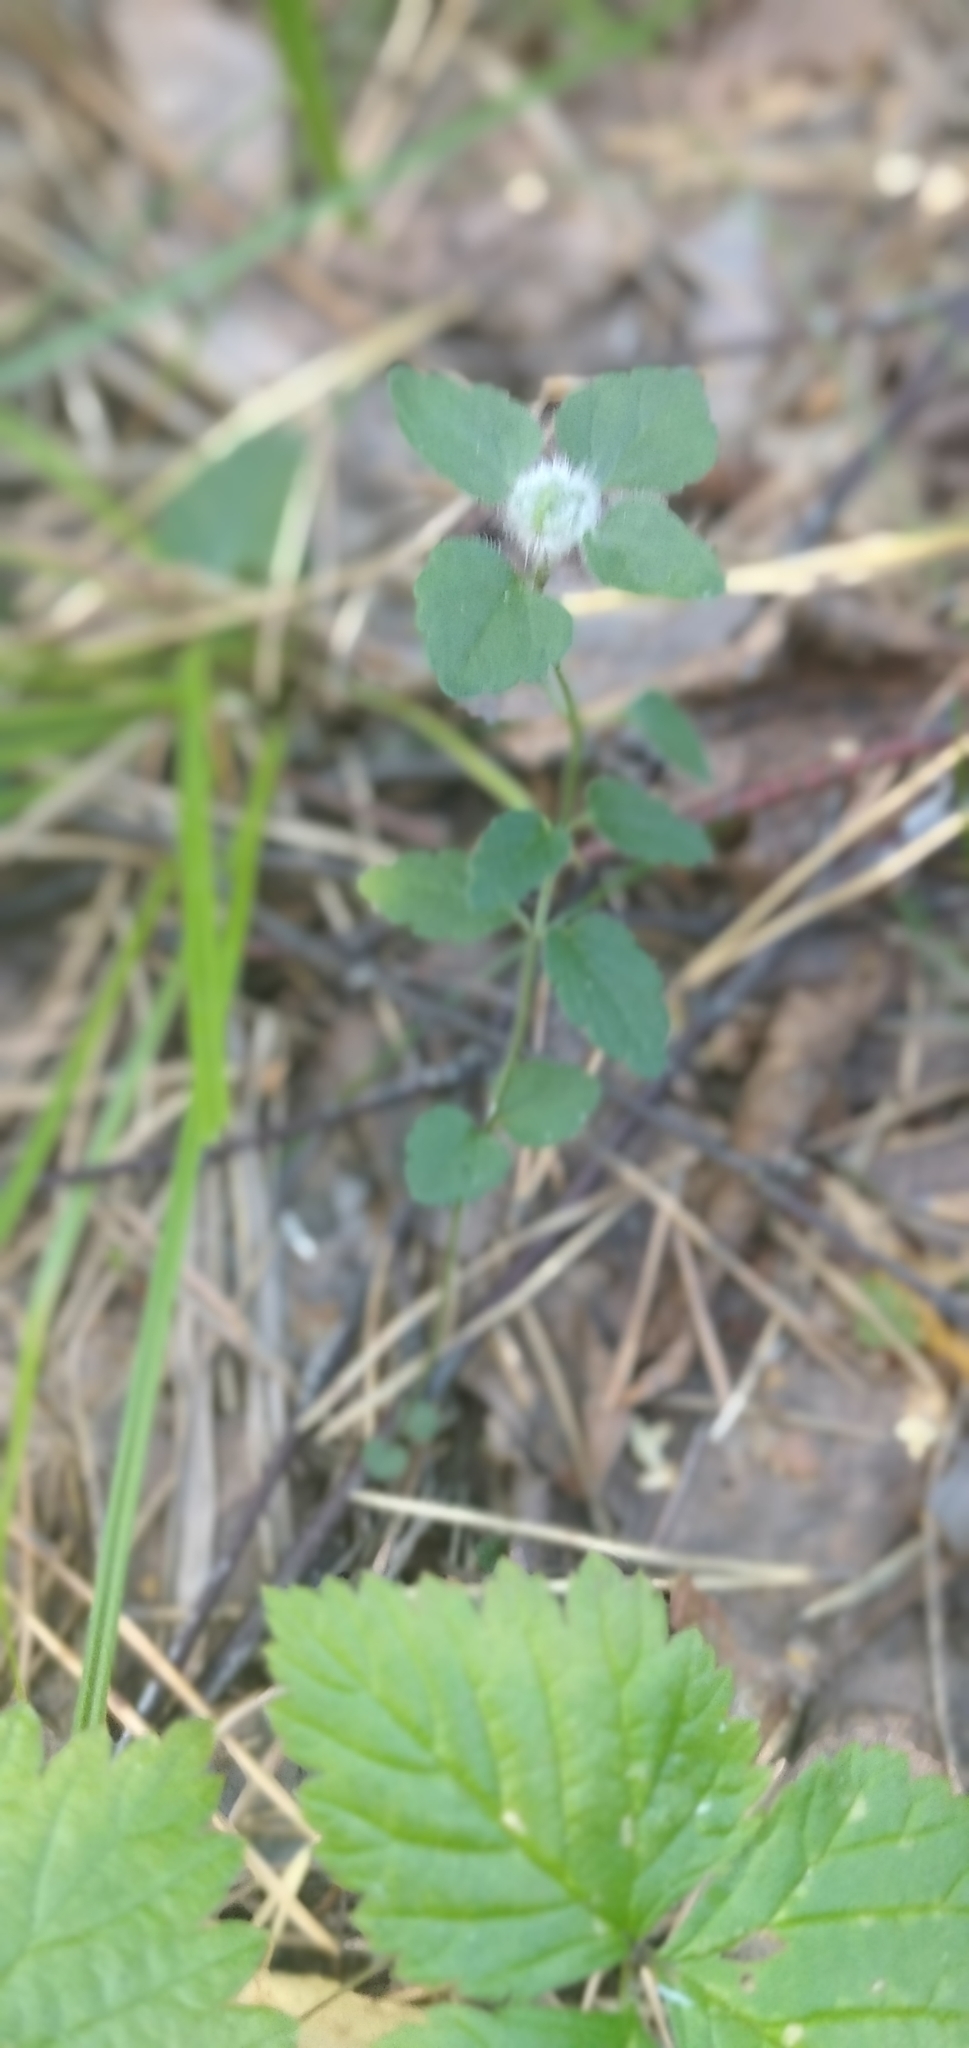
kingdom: Plantae
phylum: Tracheophyta
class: Magnoliopsida
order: Lamiales
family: Plantaginaceae
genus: Veronica
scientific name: Veronica chamaedrys
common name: Germander speedwell
